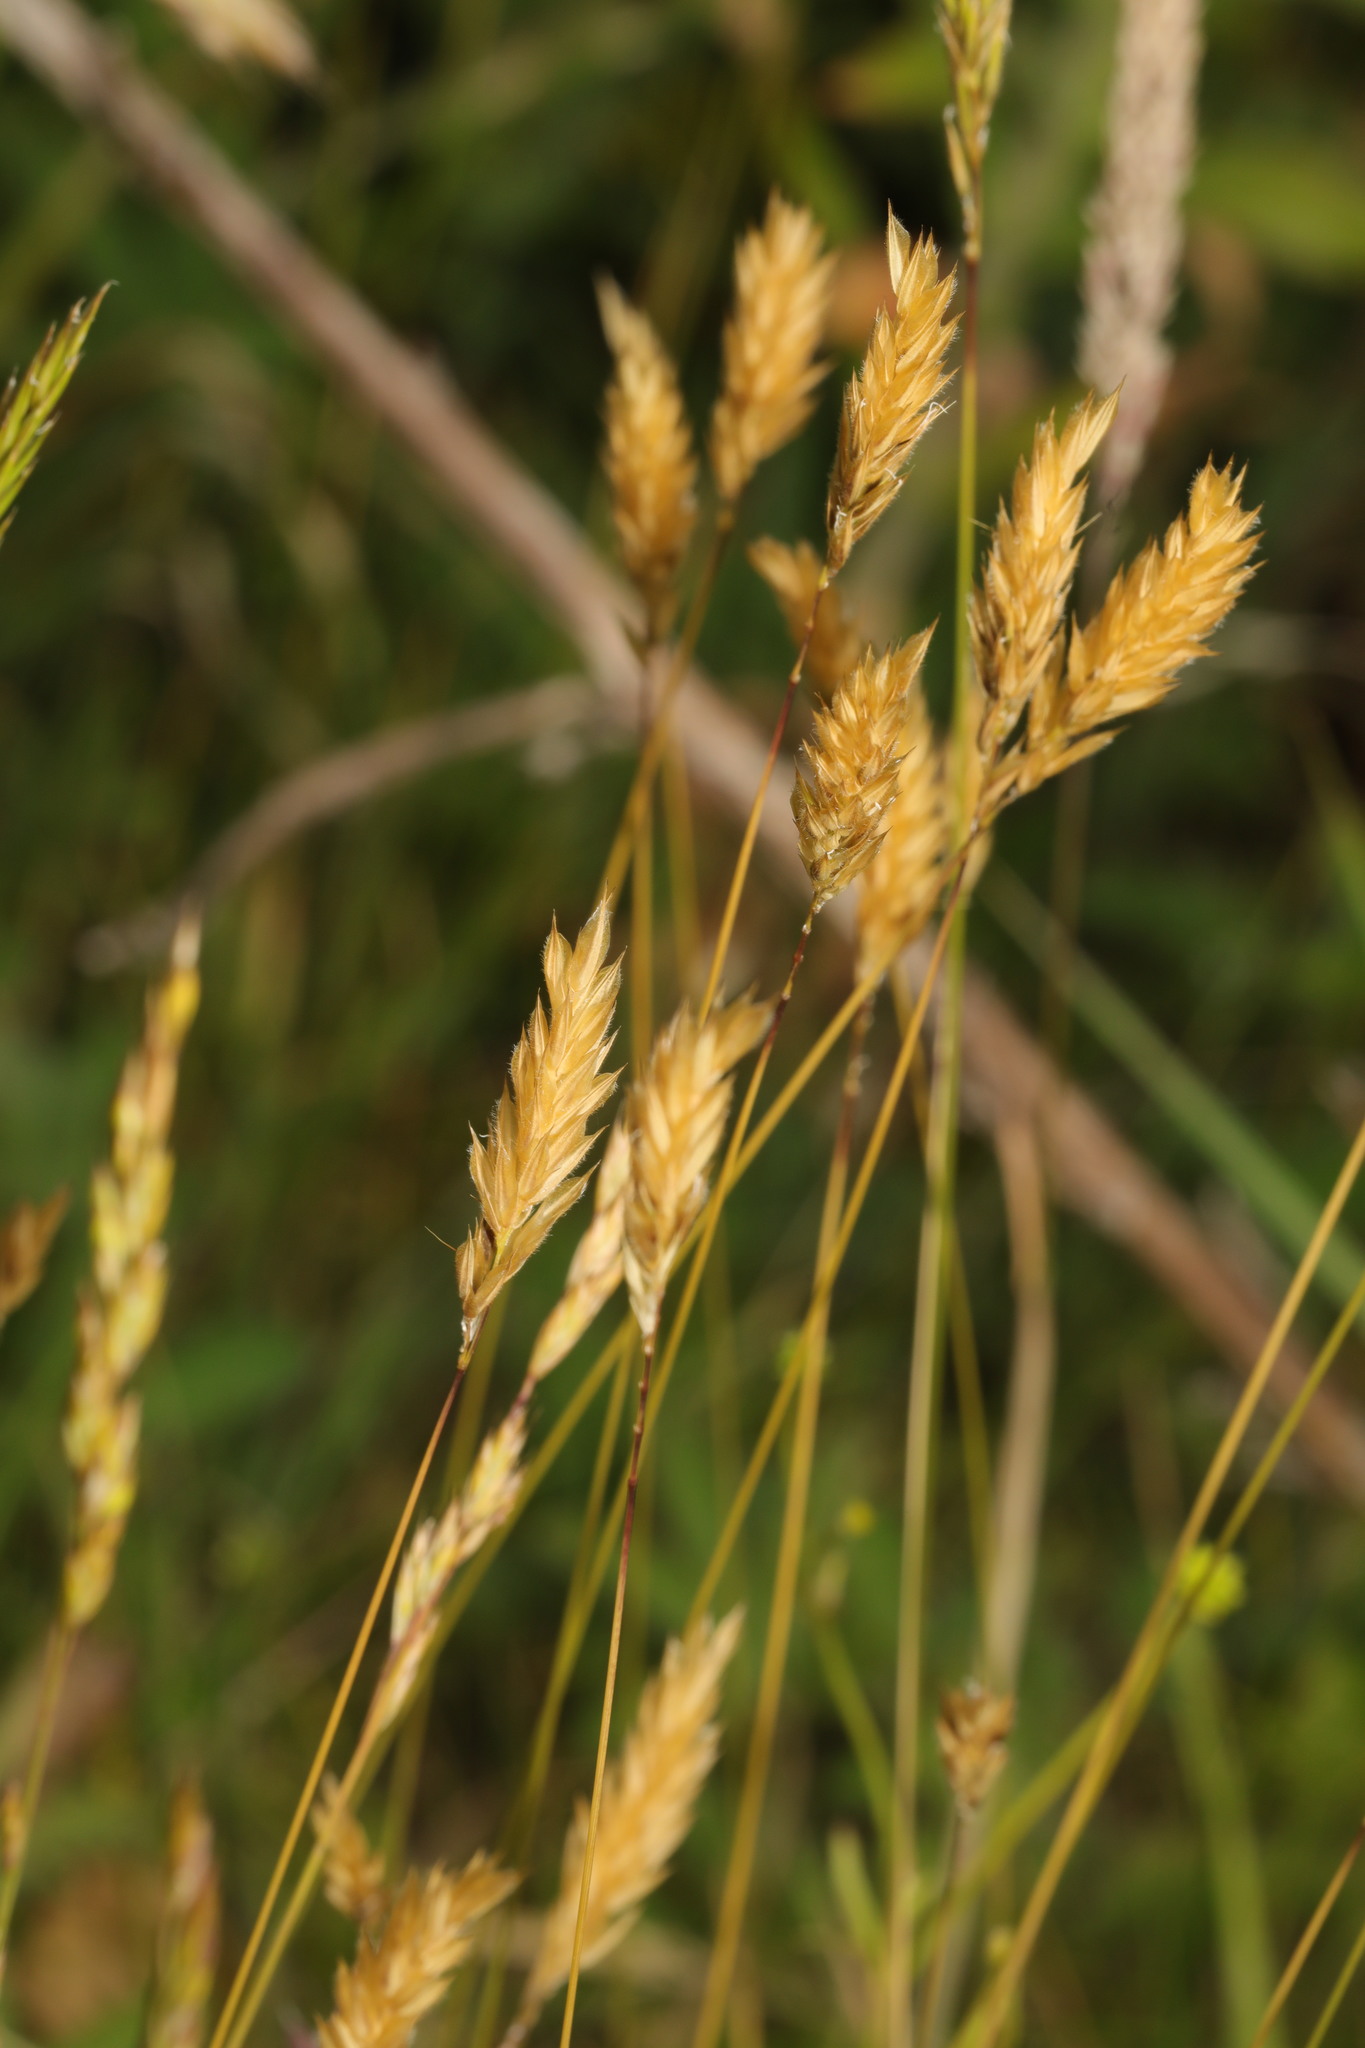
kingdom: Plantae
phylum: Tracheophyta
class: Liliopsida
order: Poales
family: Poaceae
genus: Anthoxanthum
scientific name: Anthoxanthum odoratum
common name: Sweet vernalgrass
